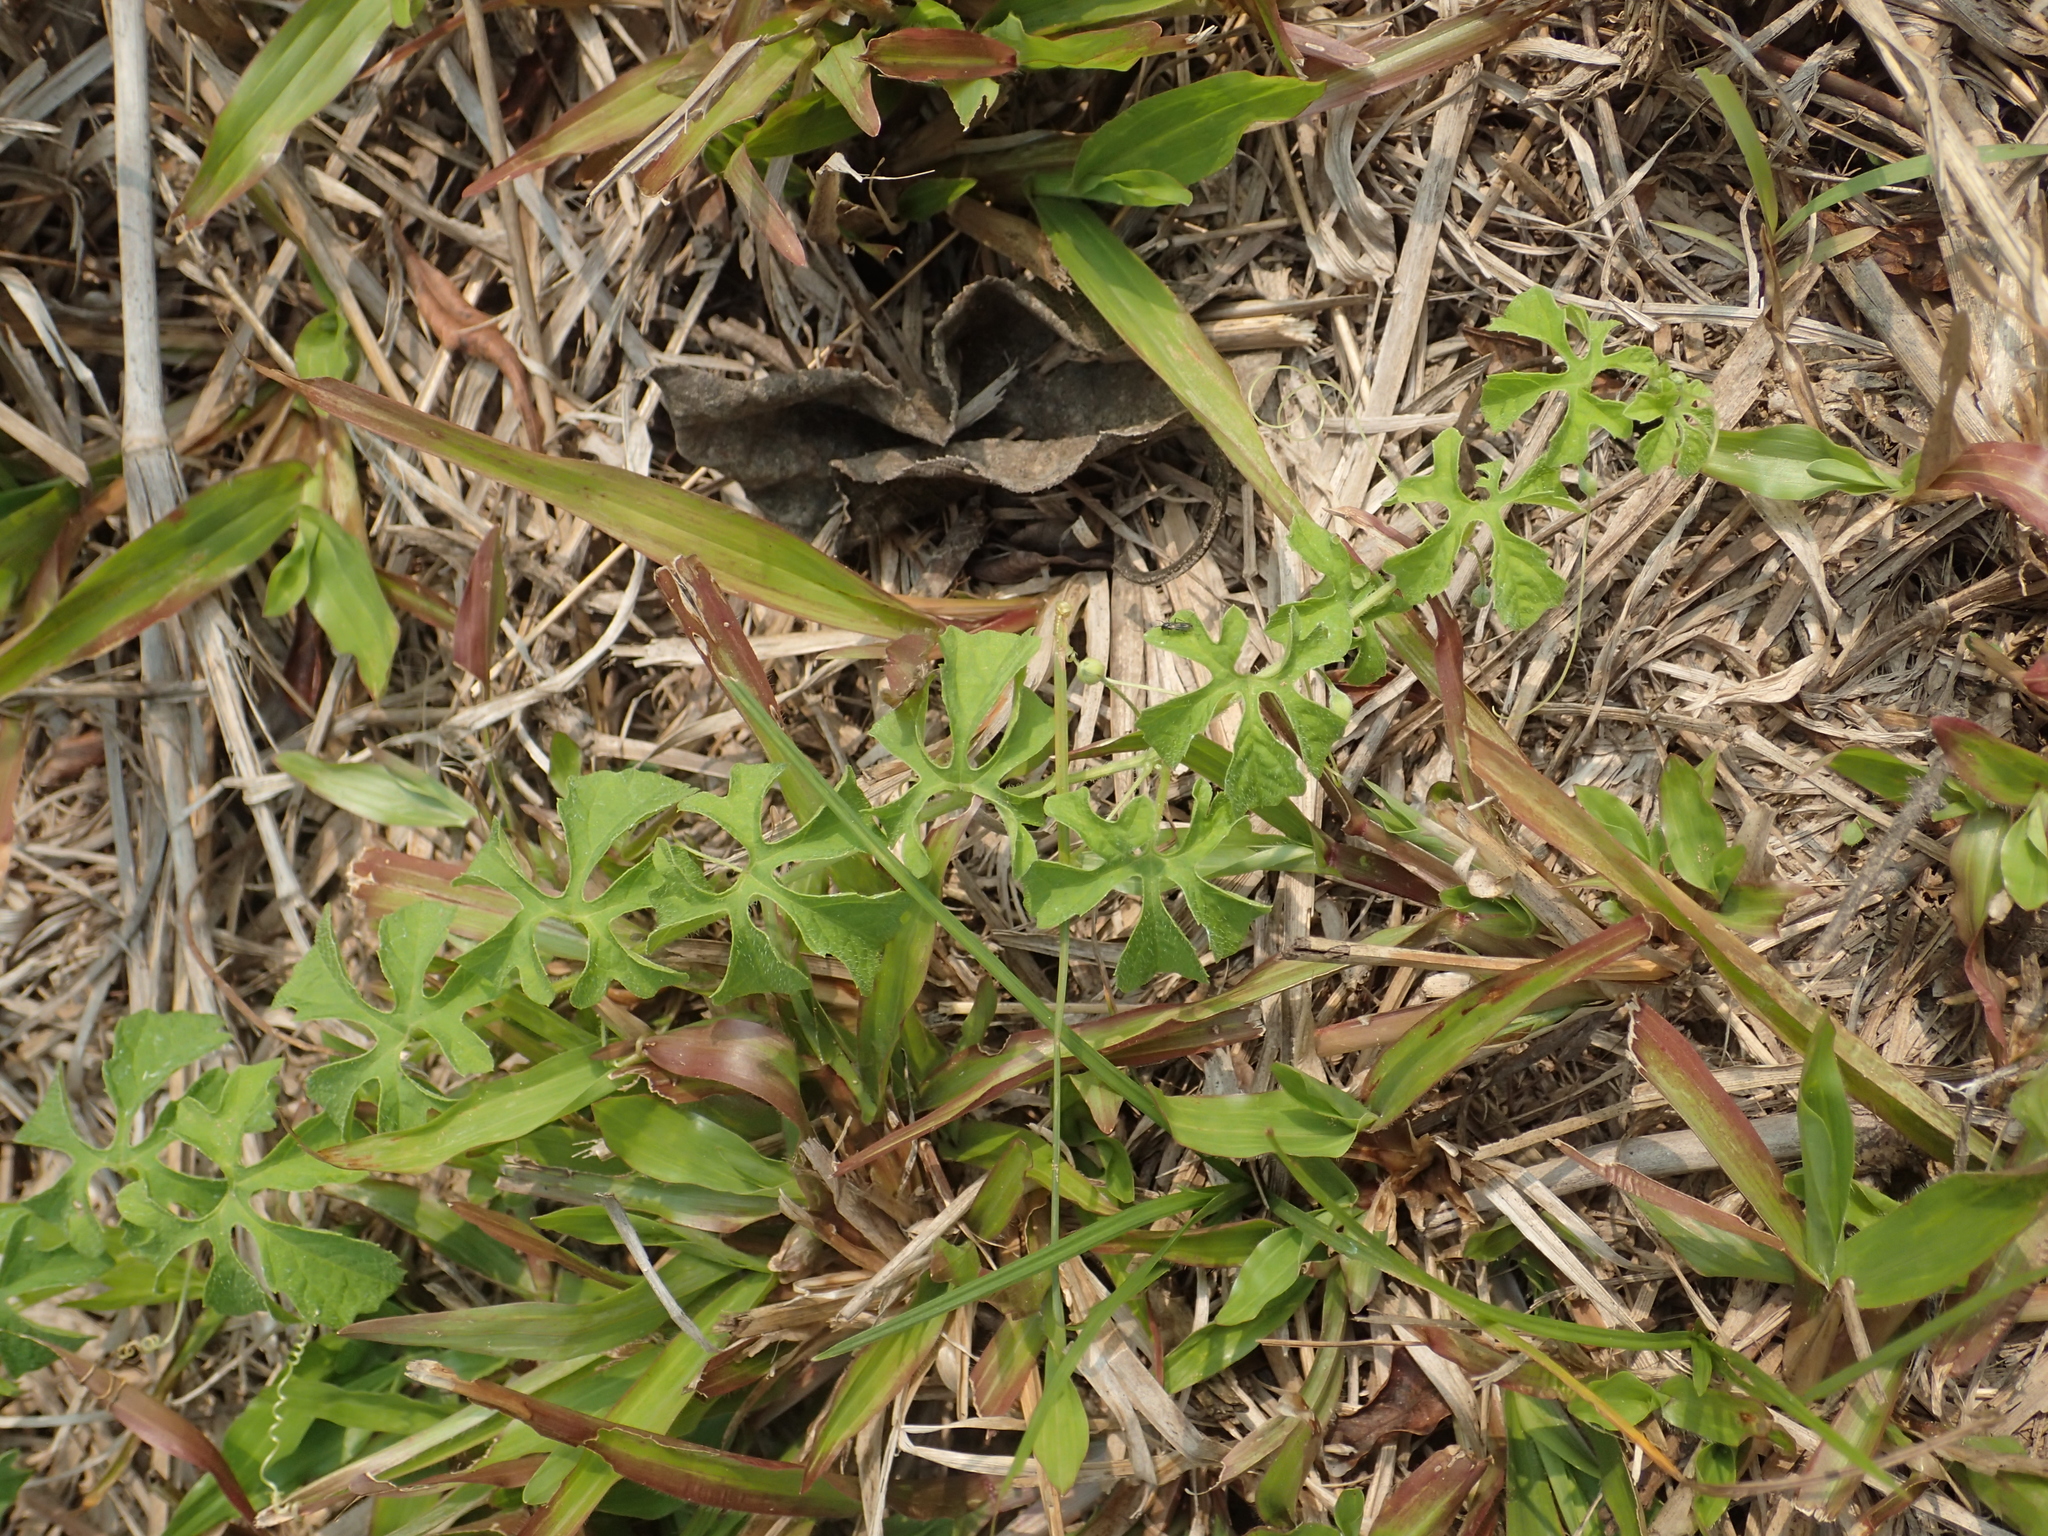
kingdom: Plantae
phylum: Tracheophyta
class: Magnoliopsida
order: Cucurbitales
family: Cucurbitaceae
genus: Momordica
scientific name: Momordica charantia
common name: Balsampear
